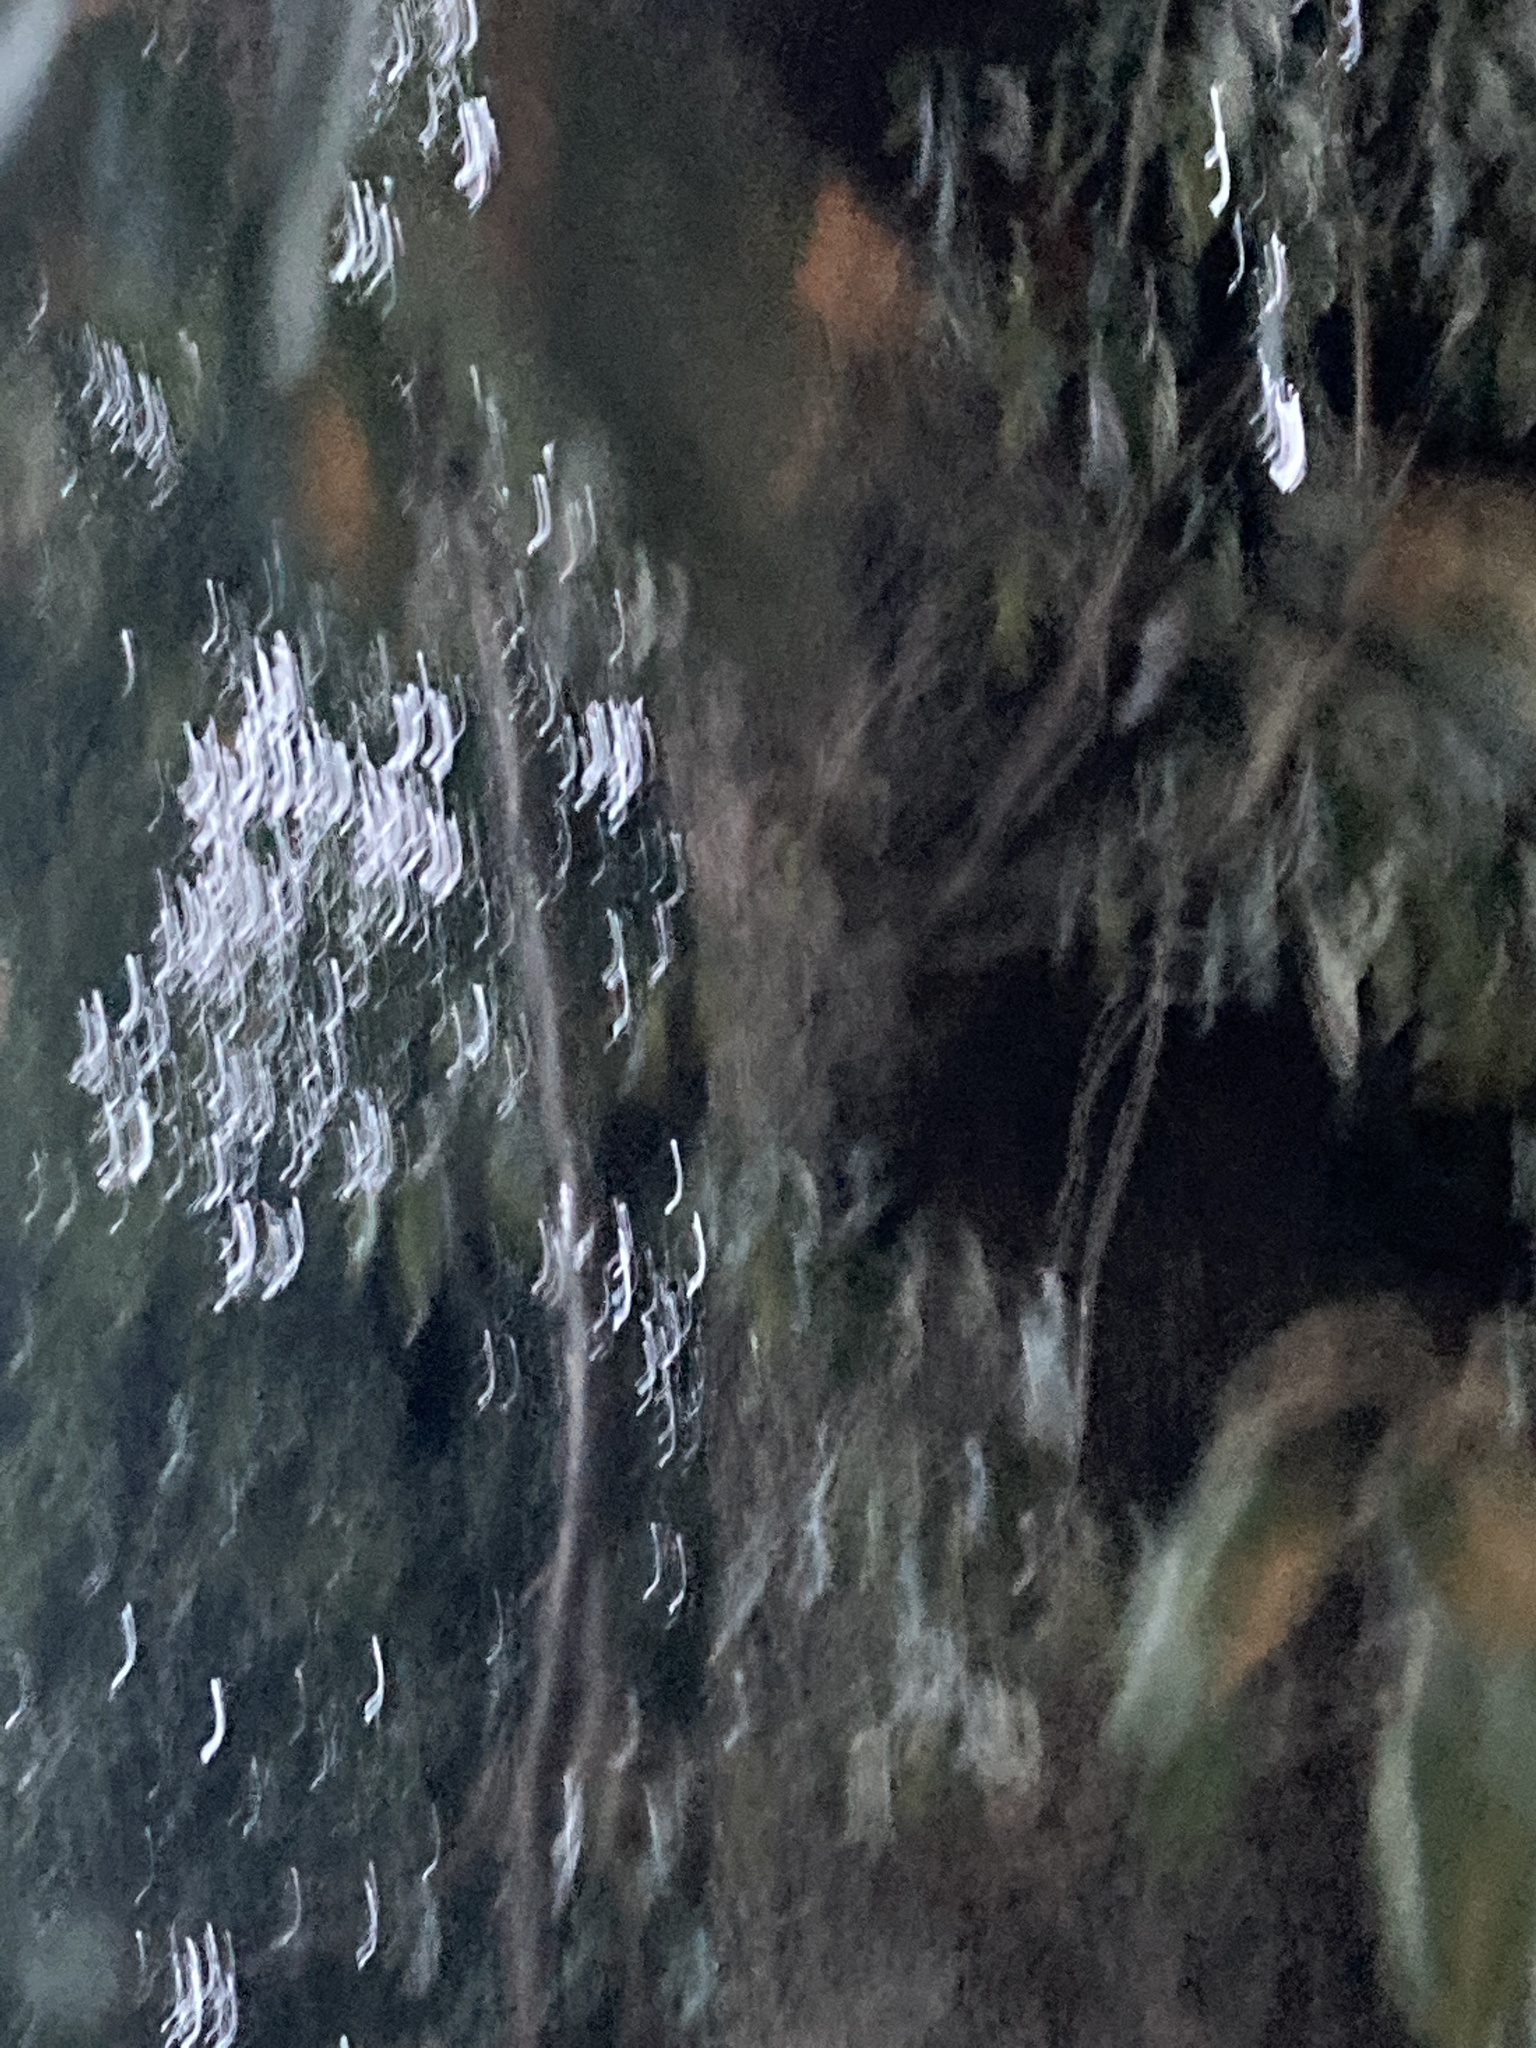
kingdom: Plantae
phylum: Tracheophyta
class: Magnoliopsida
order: Fagales
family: Fagaceae
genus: Quercus
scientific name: Quercus ilex
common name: Evergreen oak
